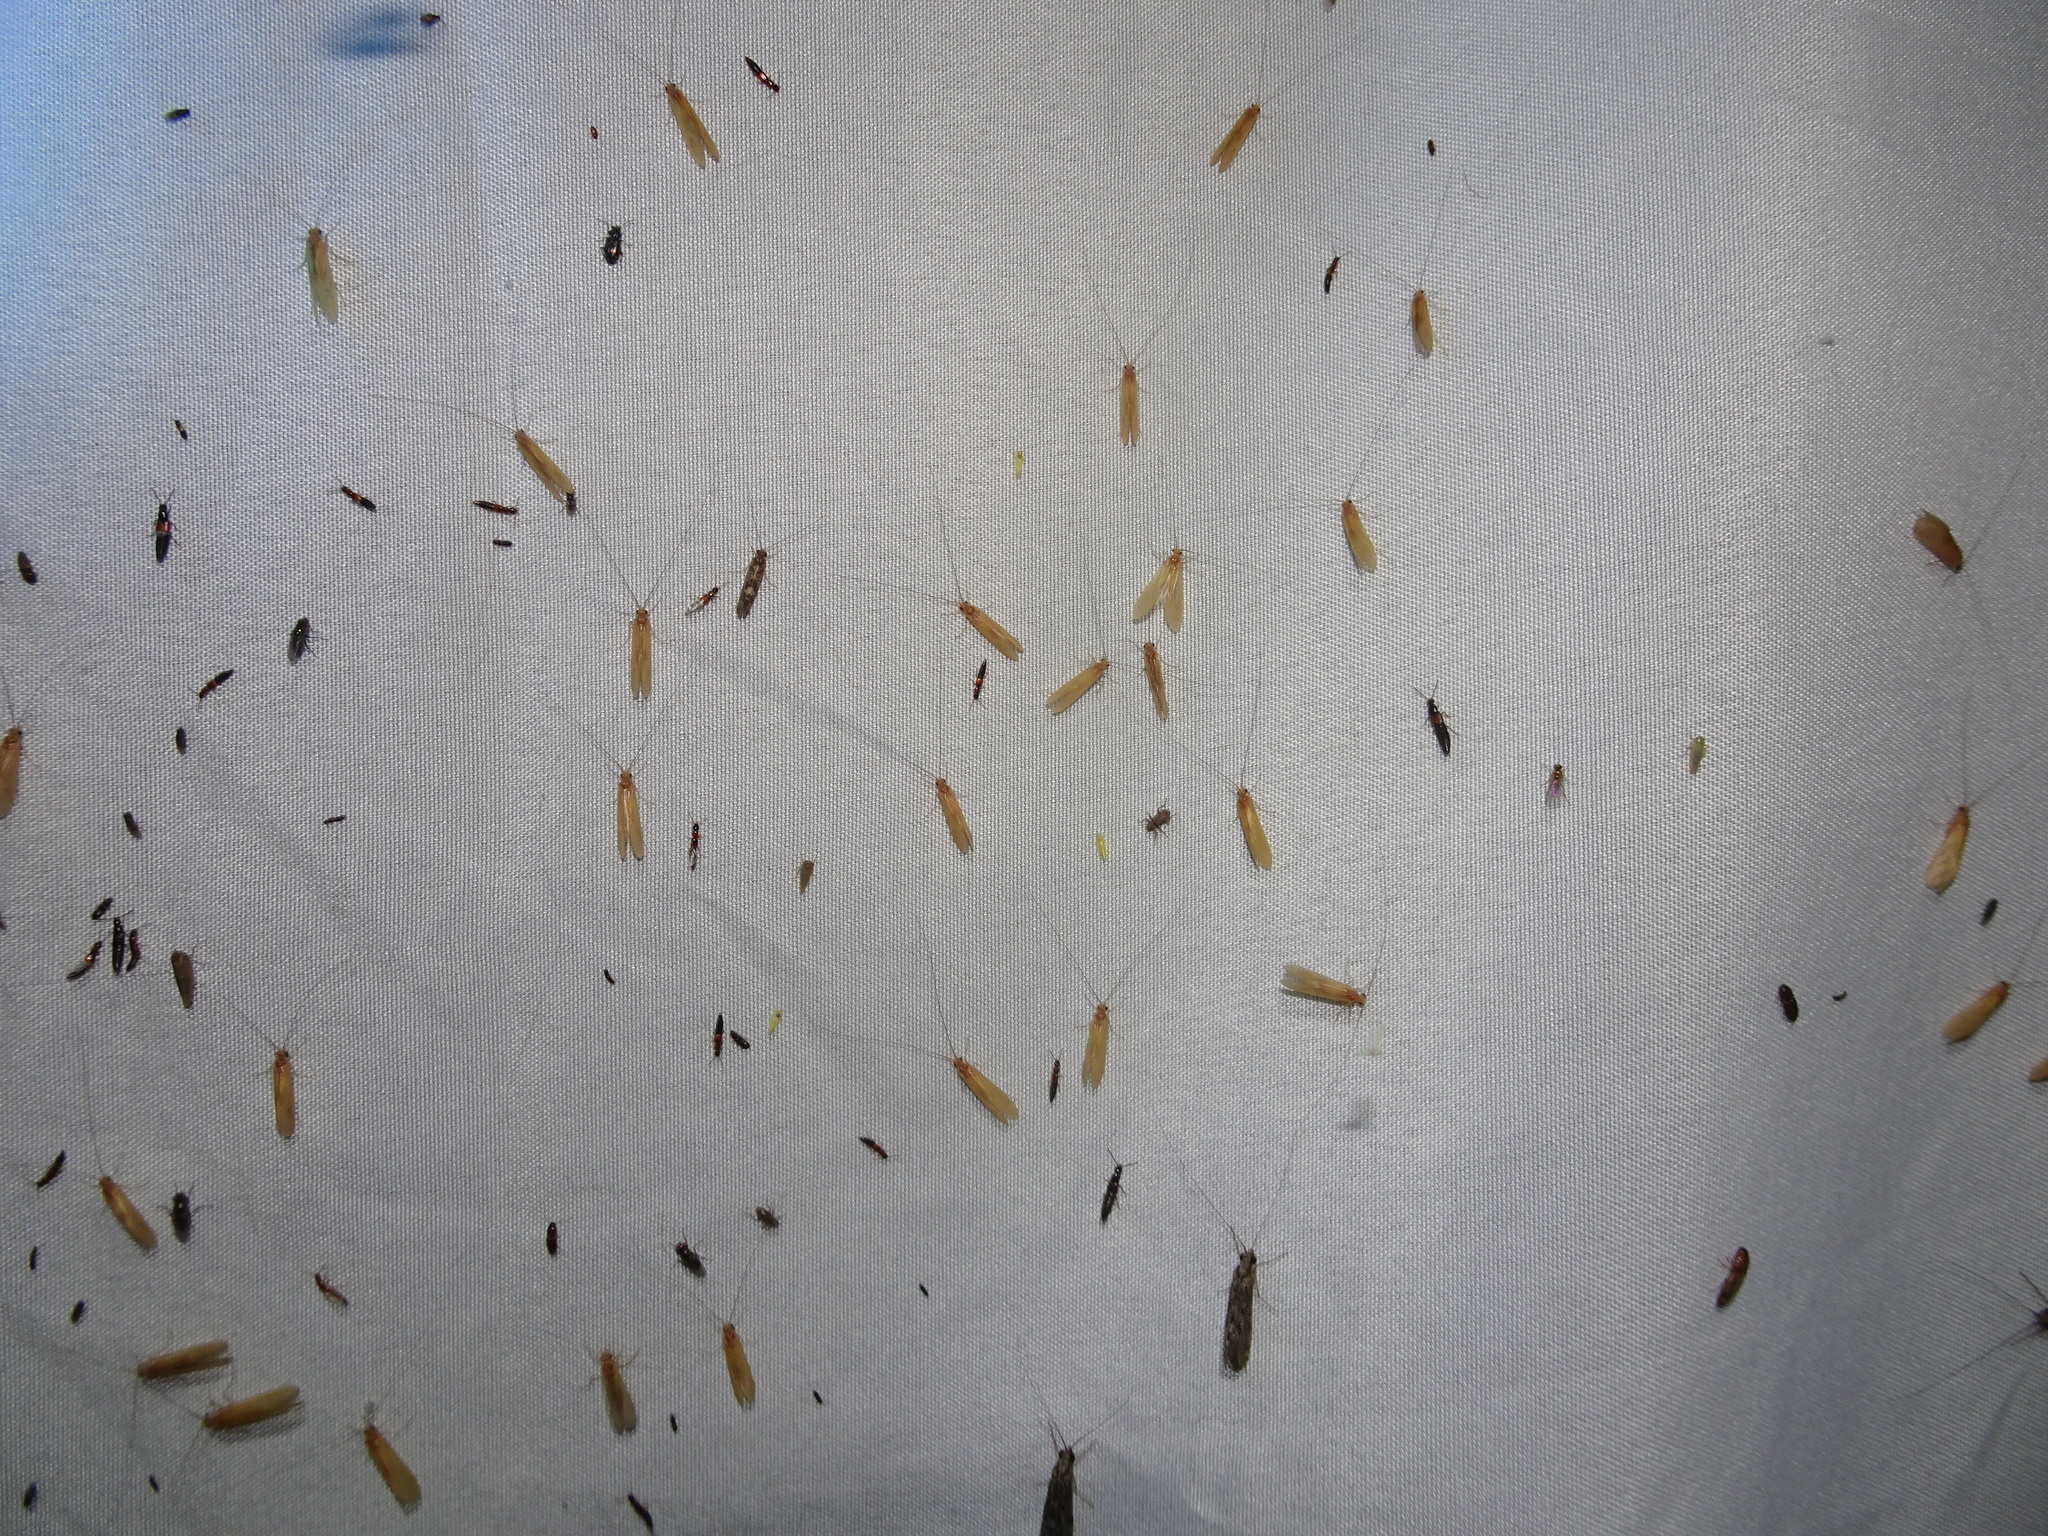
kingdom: Animalia
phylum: Arthropoda
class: Insecta
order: Trichoptera
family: Hydropsychidae
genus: Potamyia
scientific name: Potamyia flava
